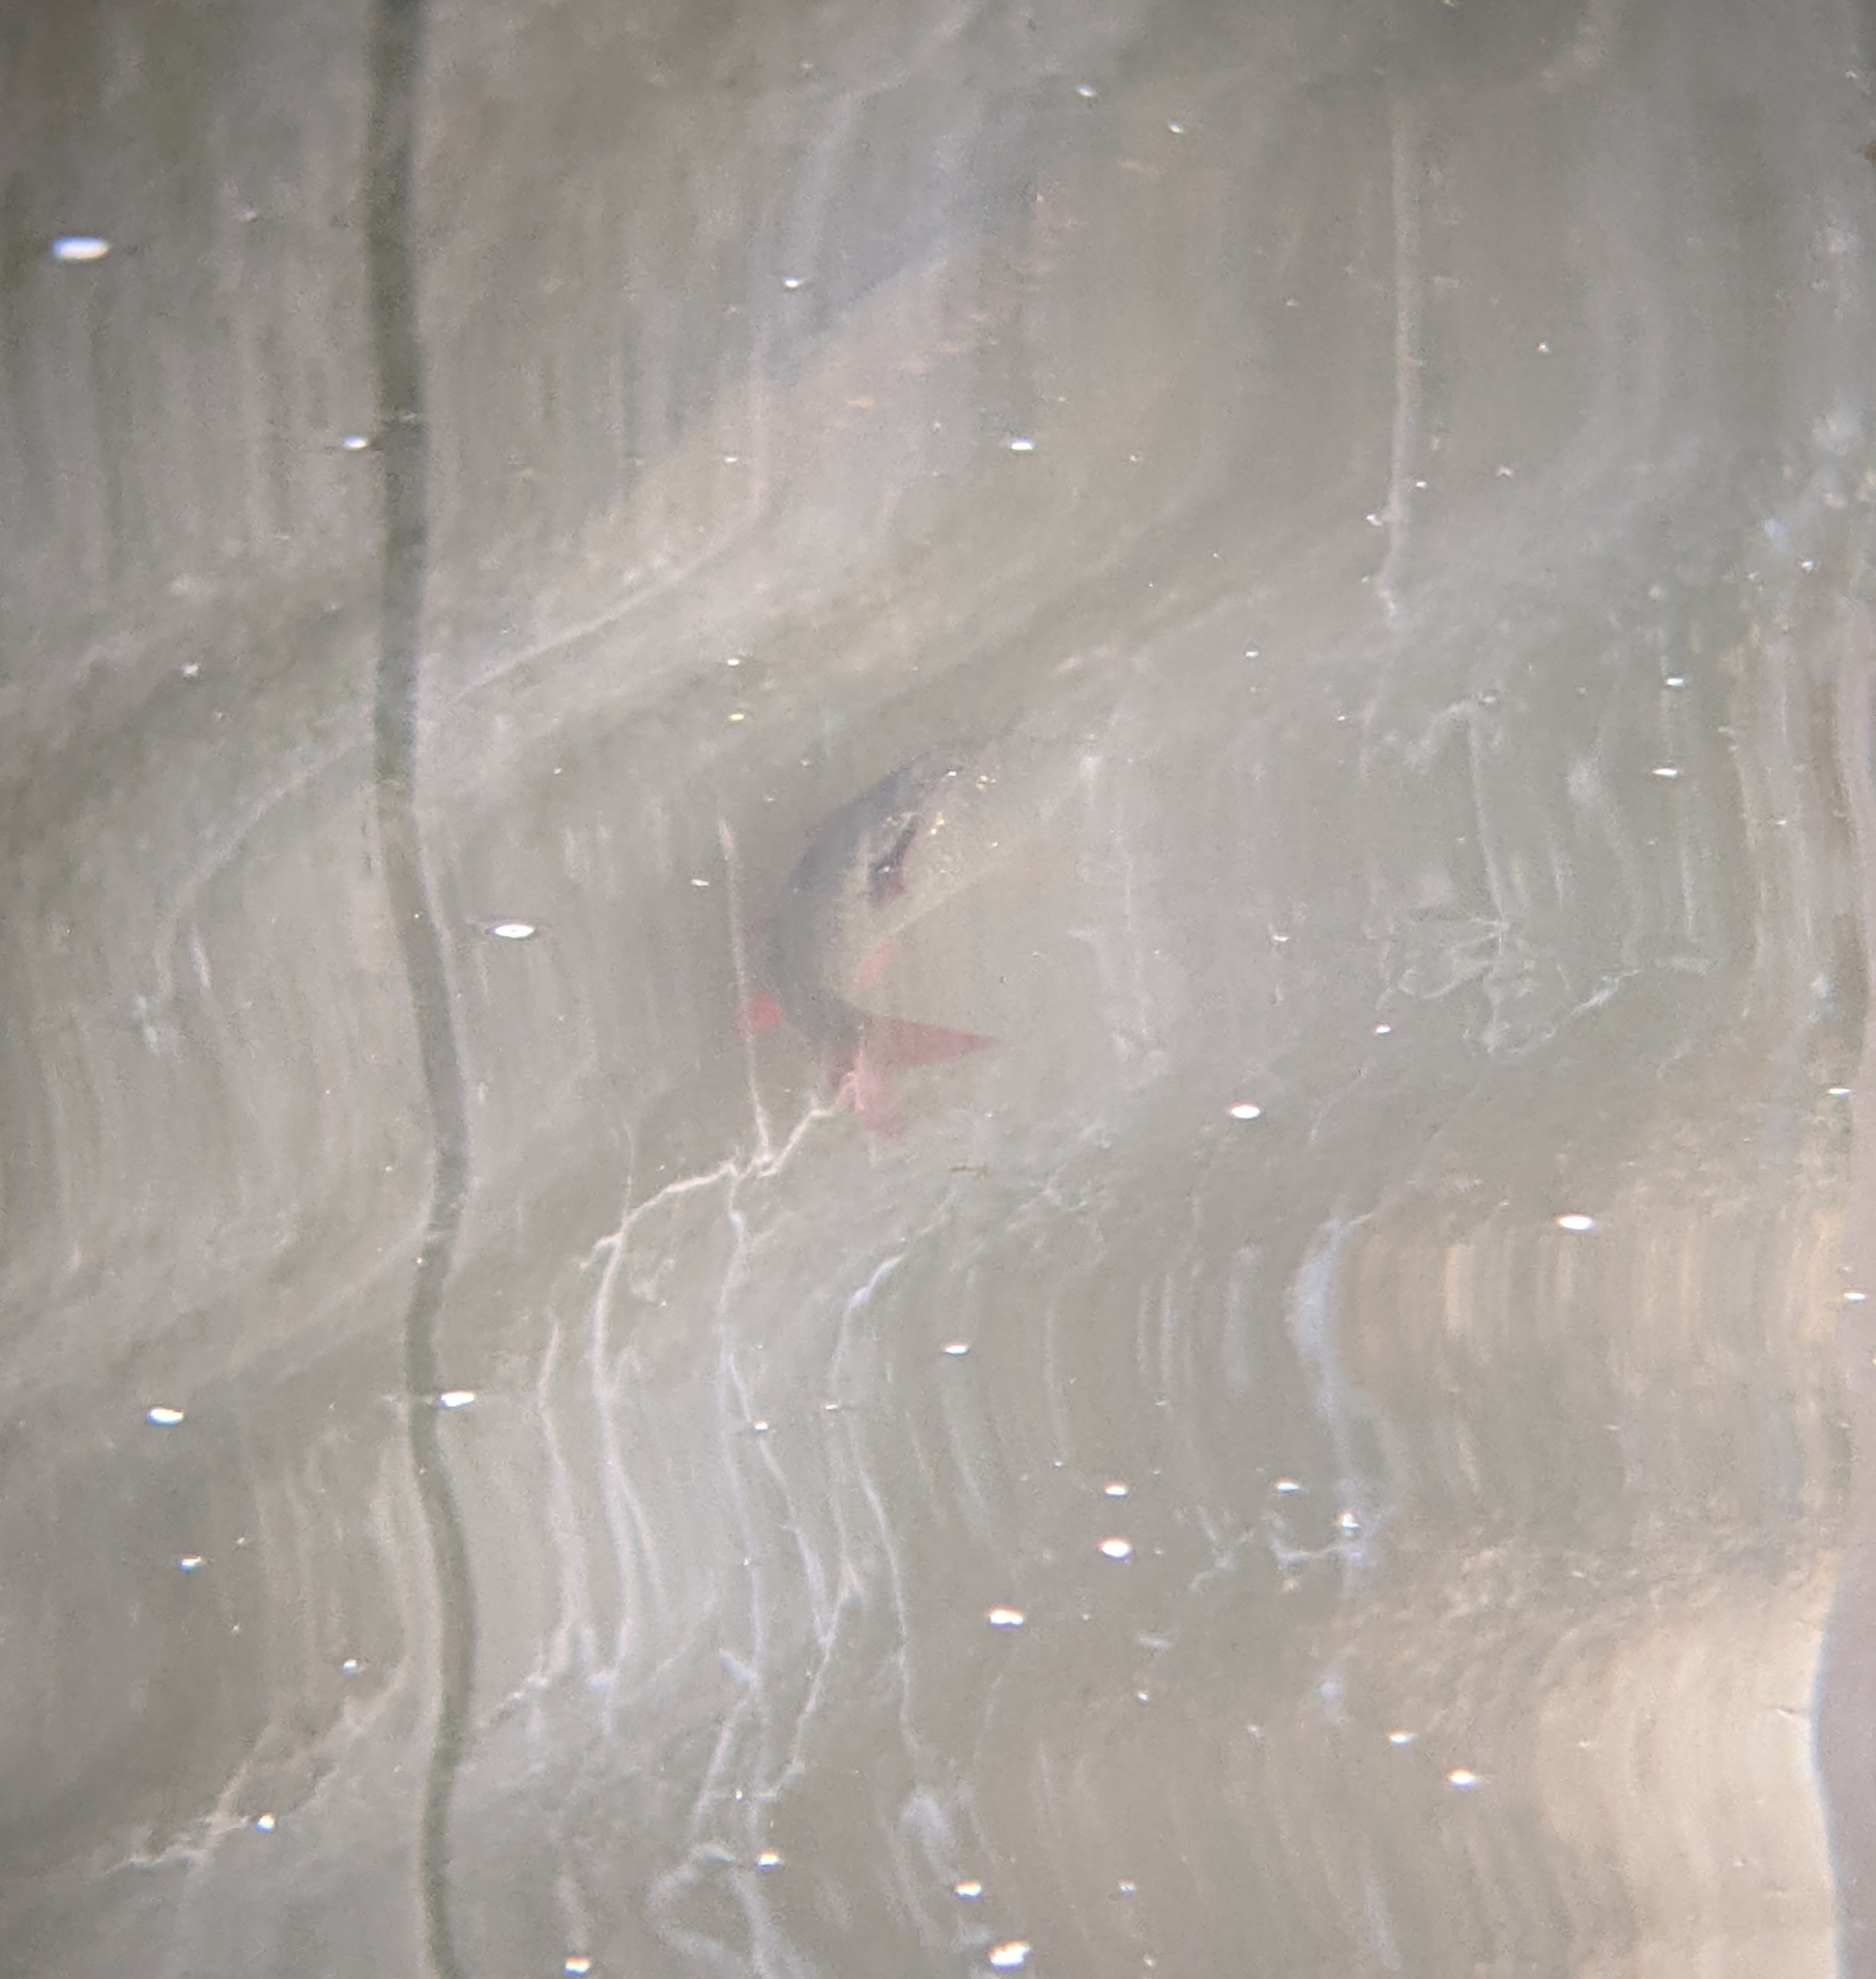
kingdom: Animalia
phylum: Chordata
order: Cypriniformes
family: Cyprinidae
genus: Scardinius
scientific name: Scardinius erythrophthalmus
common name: Rudd
